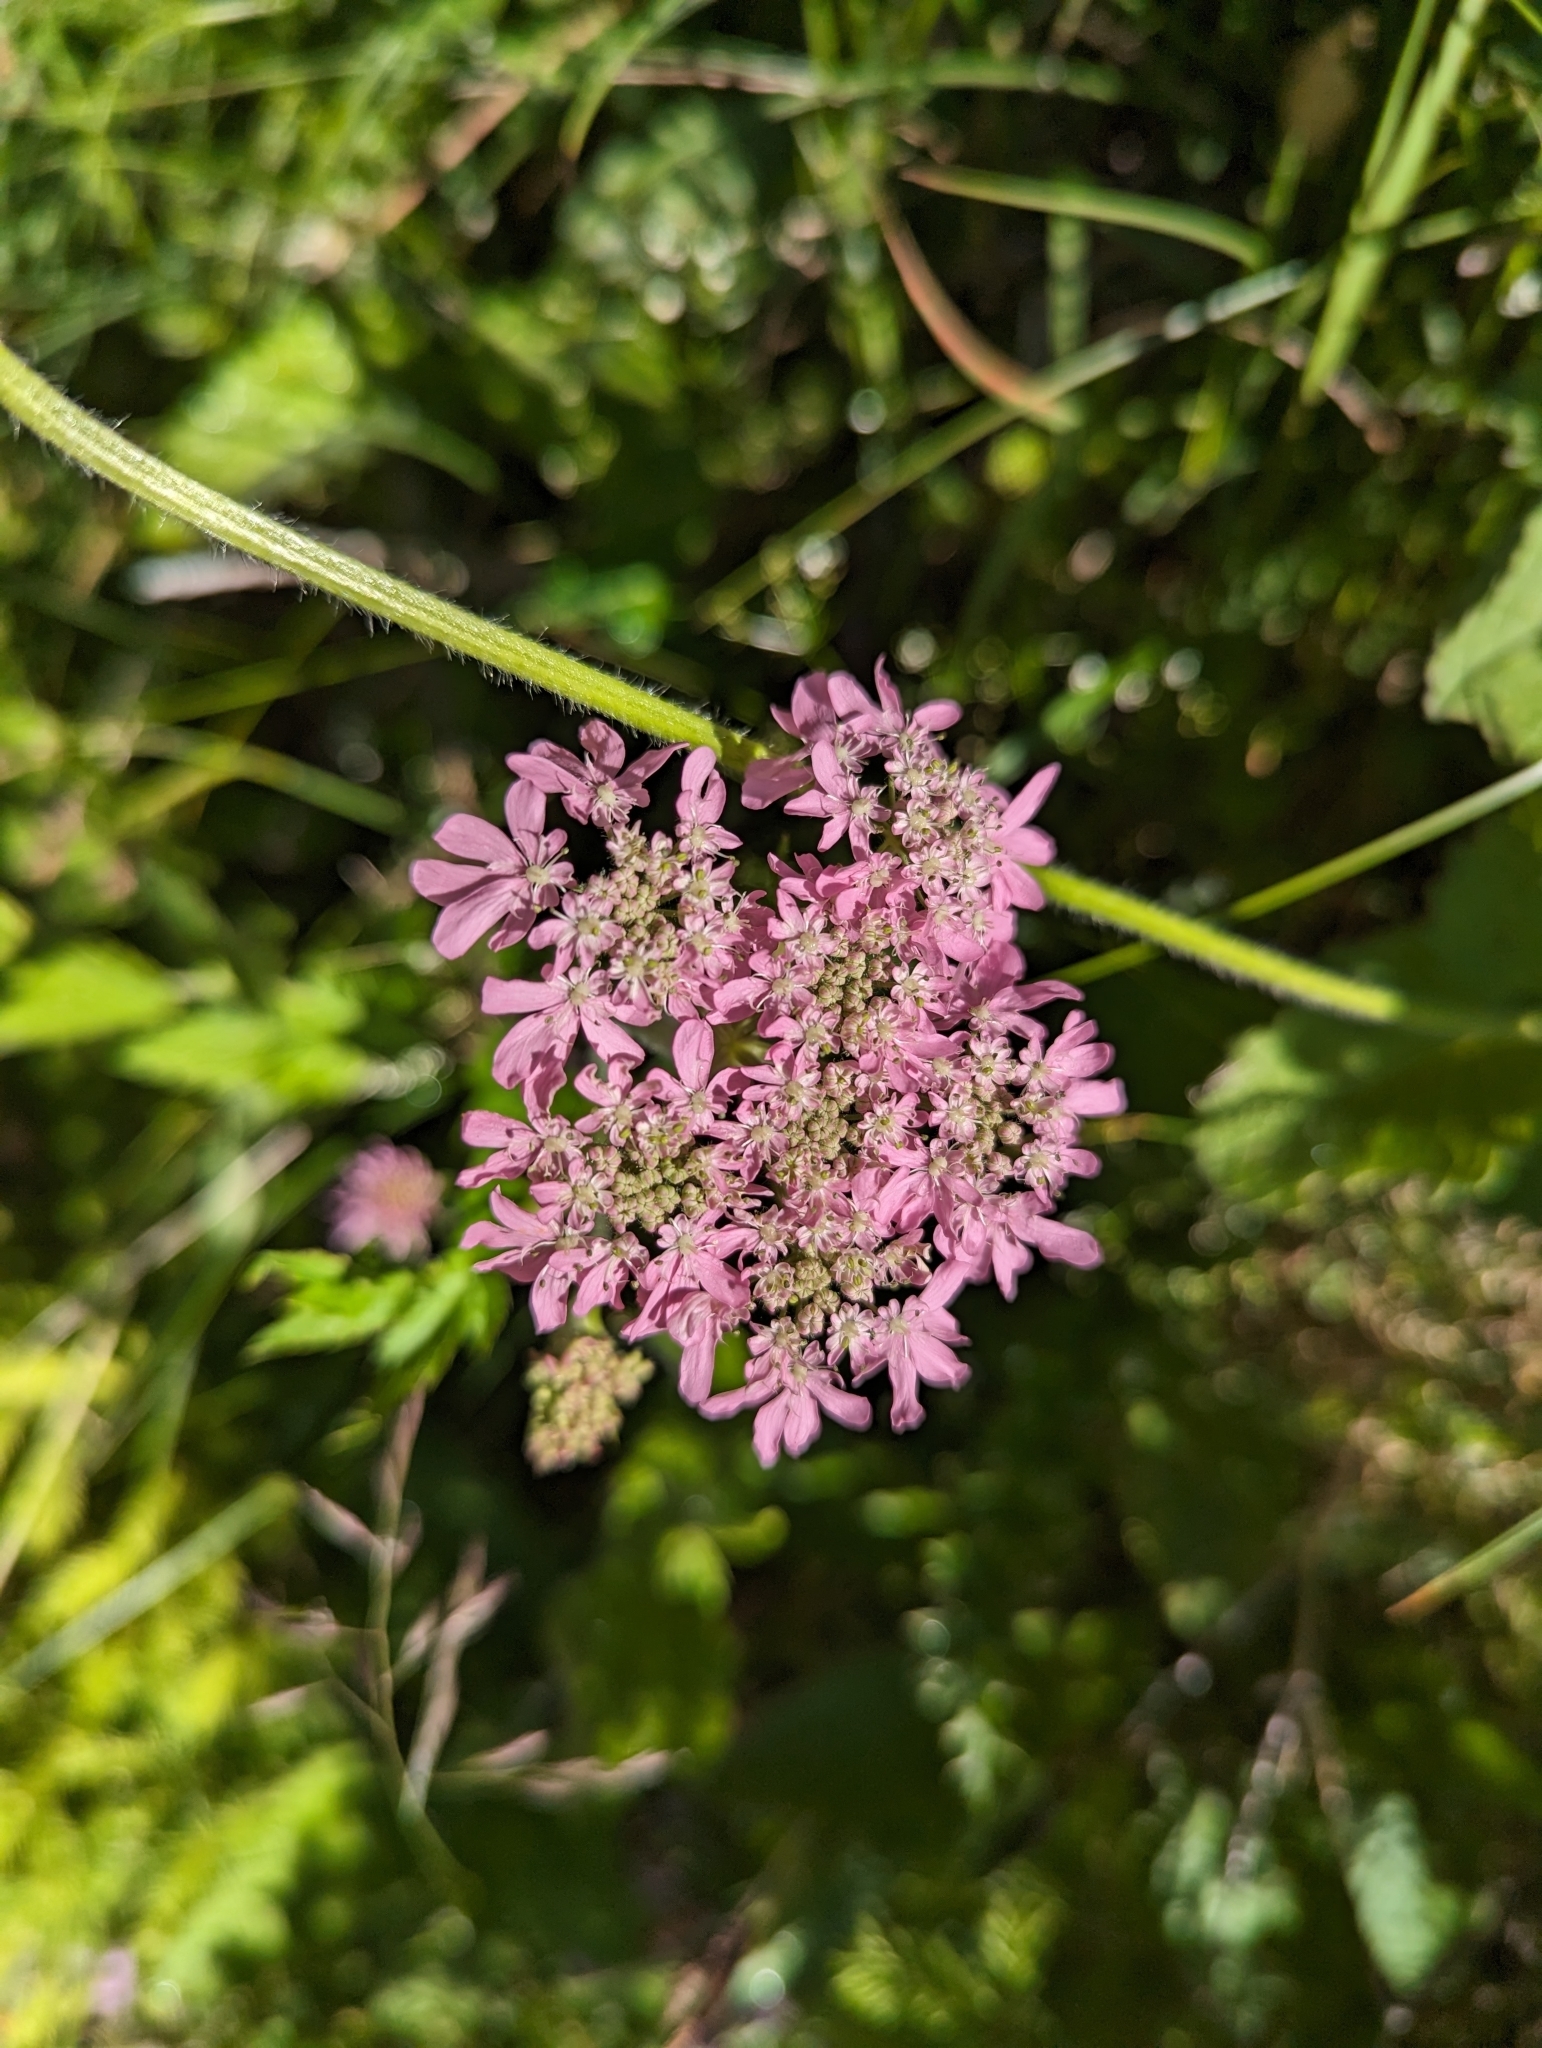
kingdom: Plantae
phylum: Tracheophyta
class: Magnoliopsida
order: Apiales
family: Apiaceae
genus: Heracleum
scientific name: Heracleum austriacum
